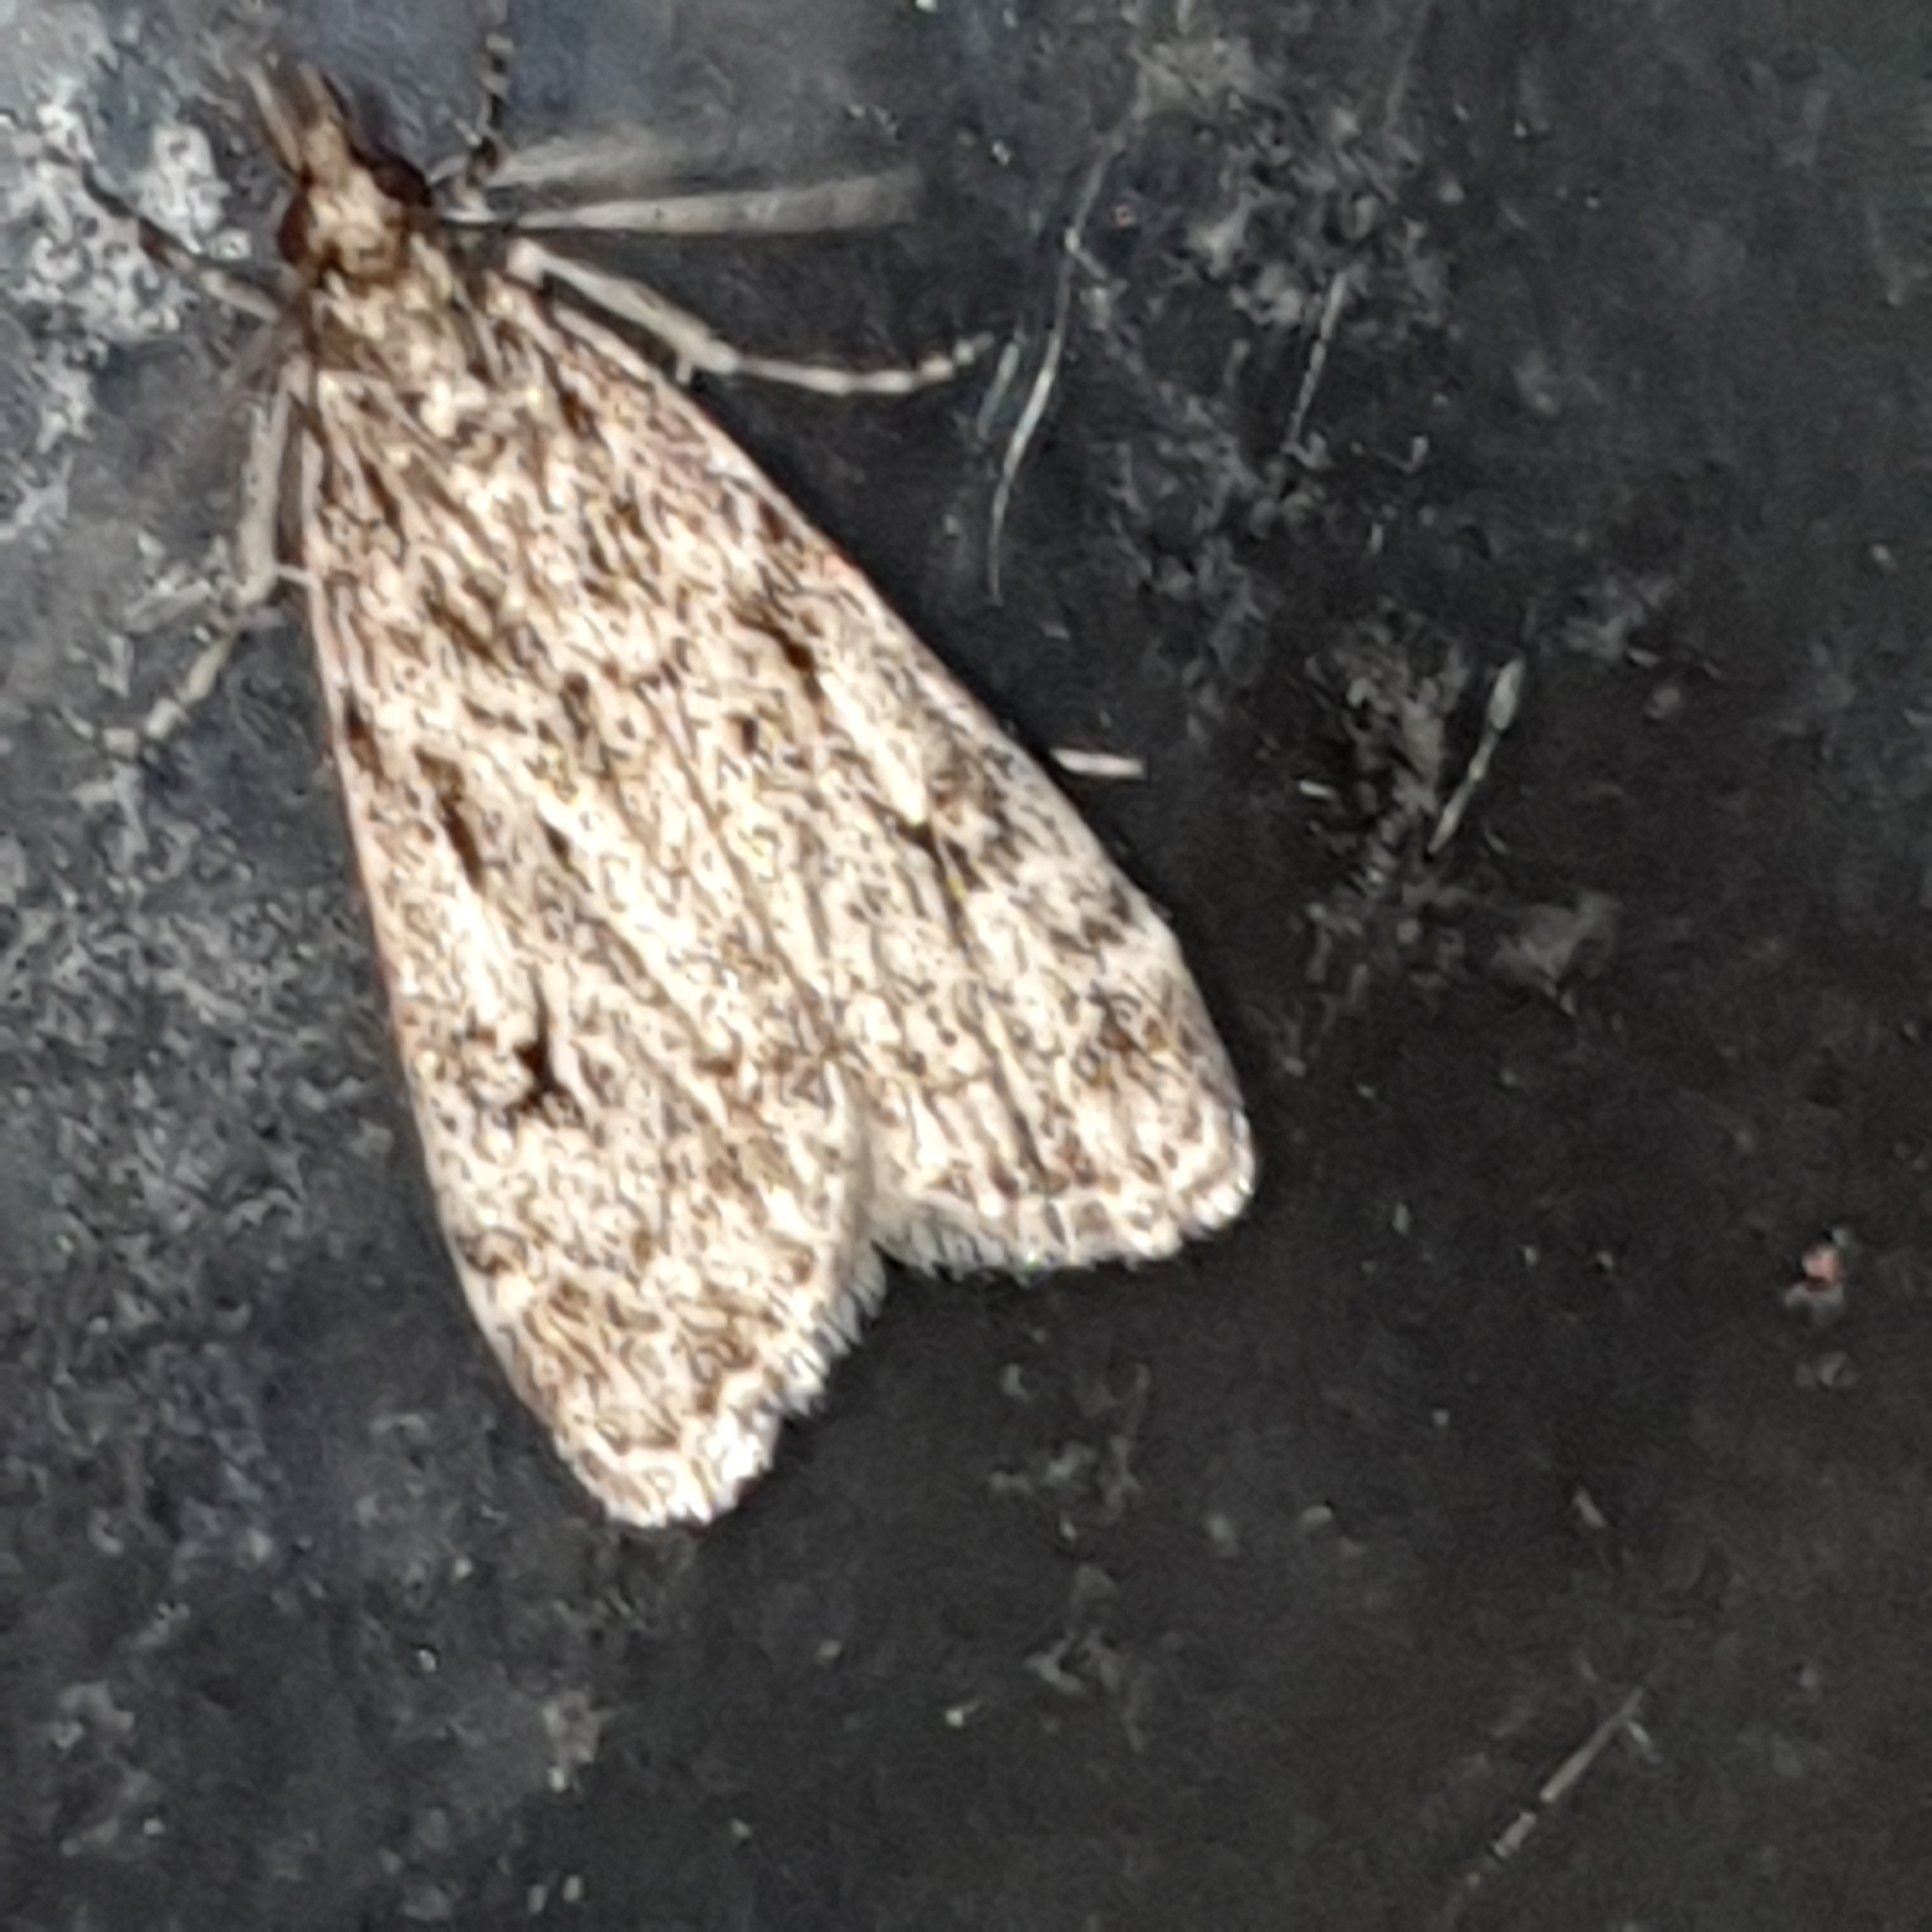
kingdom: Animalia
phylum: Arthropoda
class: Insecta
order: Lepidoptera
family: Crambidae
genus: Eudonia
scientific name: Eudonia truncicolella
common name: Ground-moss grey
